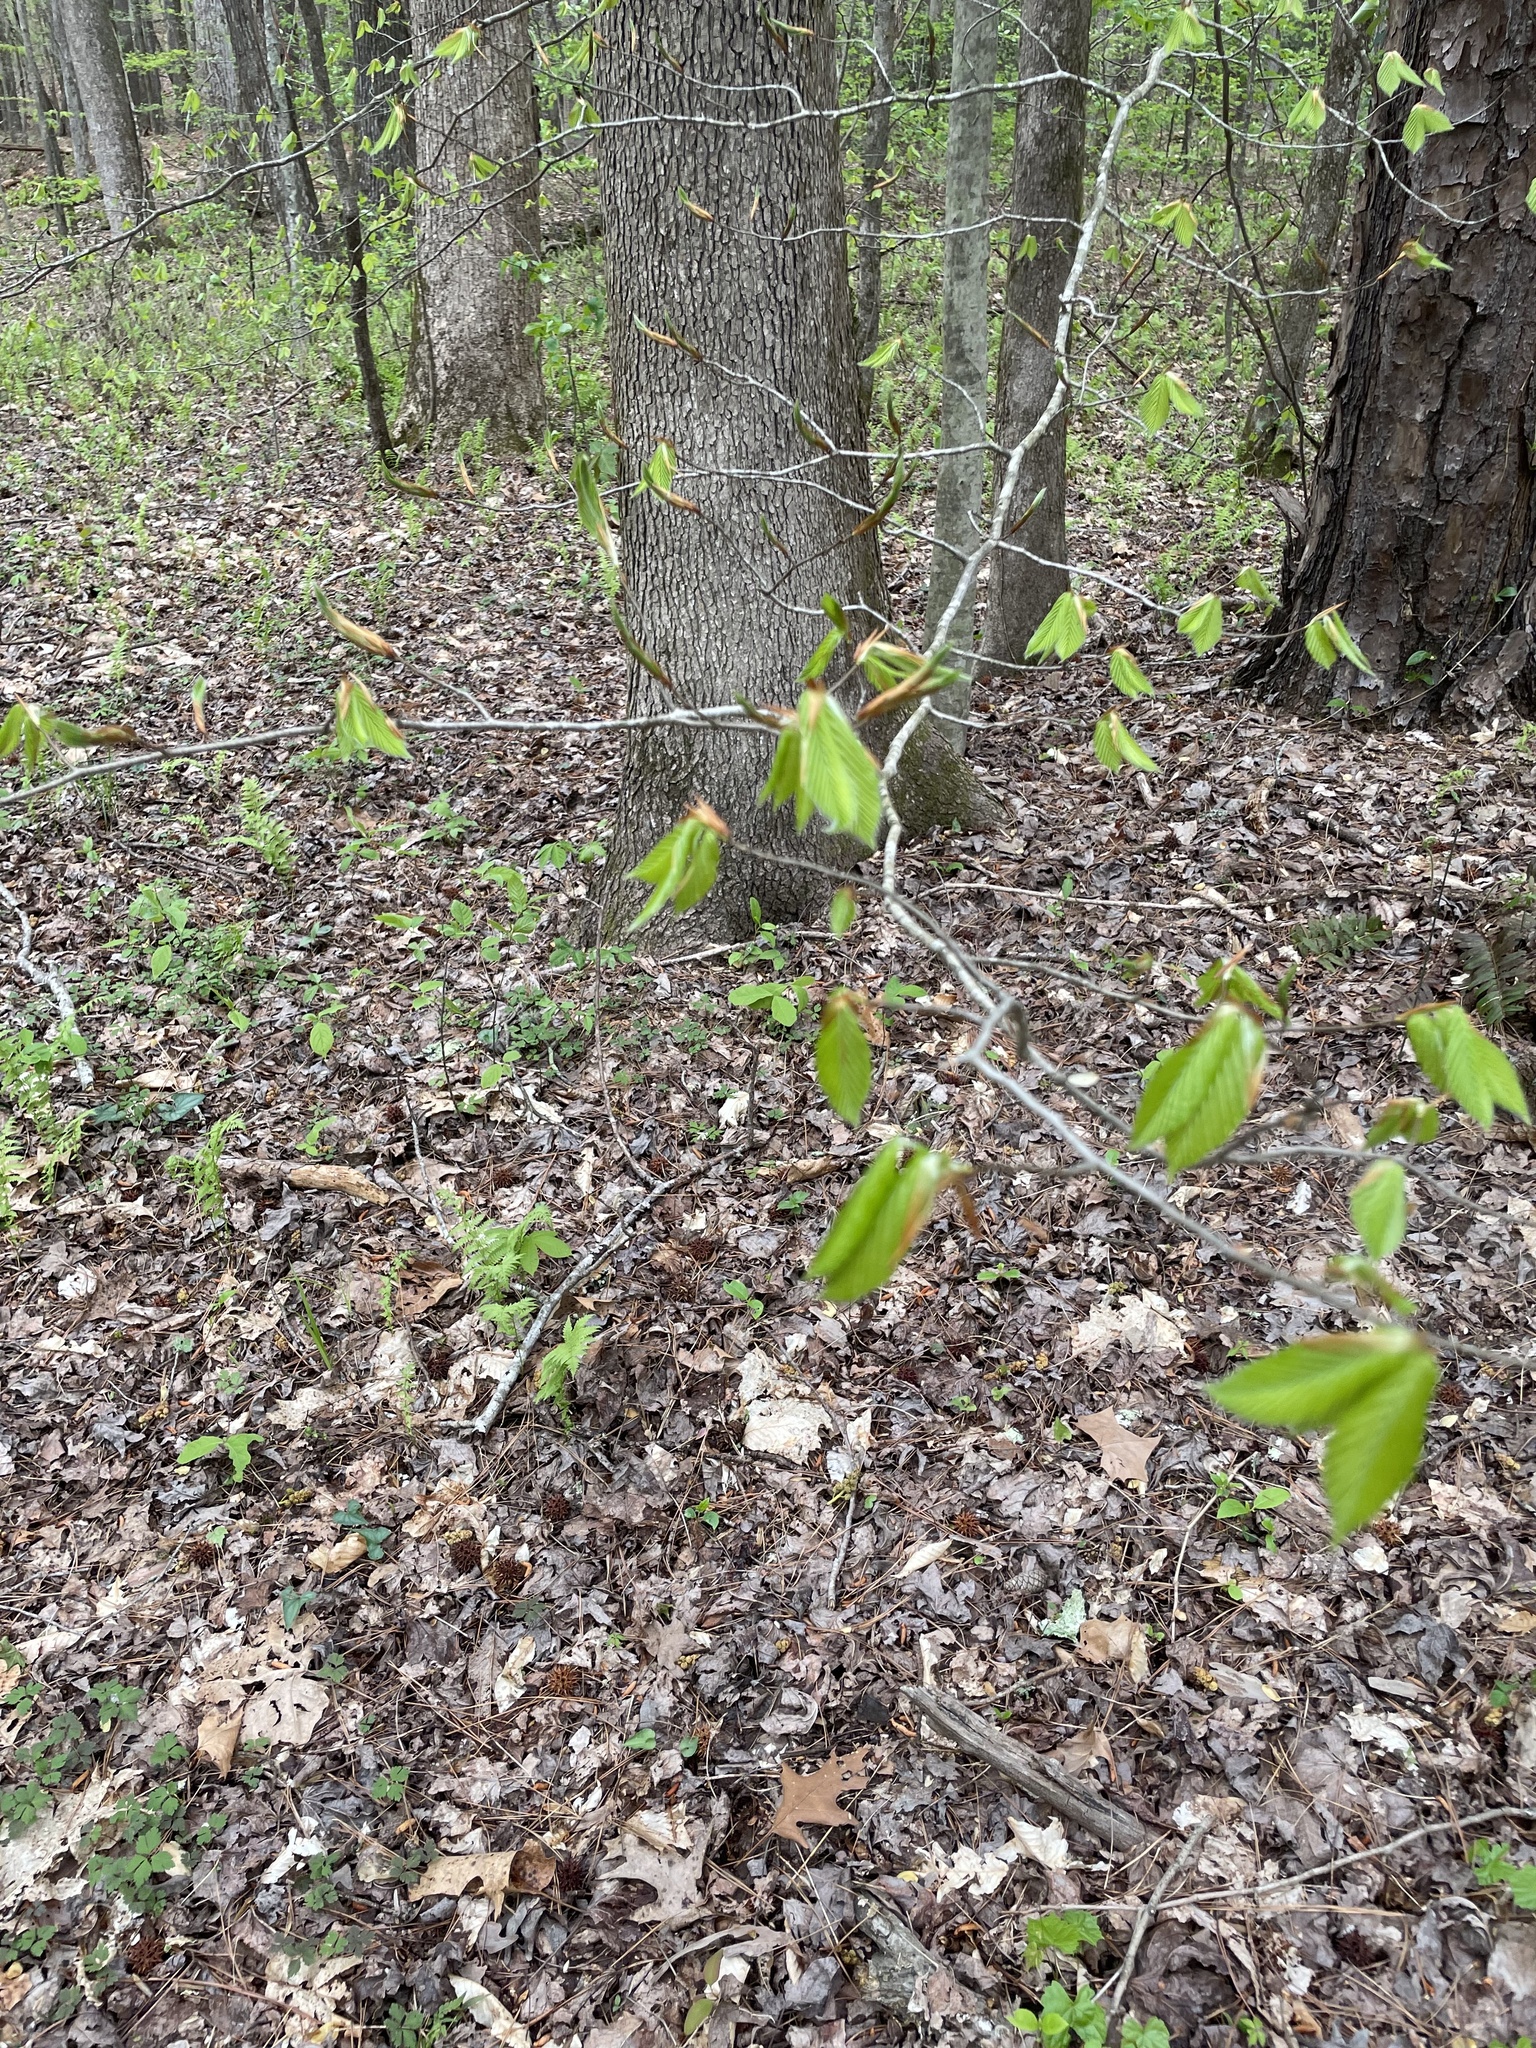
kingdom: Plantae
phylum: Tracheophyta
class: Magnoliopsida
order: Fagales
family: Fagaceae
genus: Fagus
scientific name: Fagus grandifolia
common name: American beech
